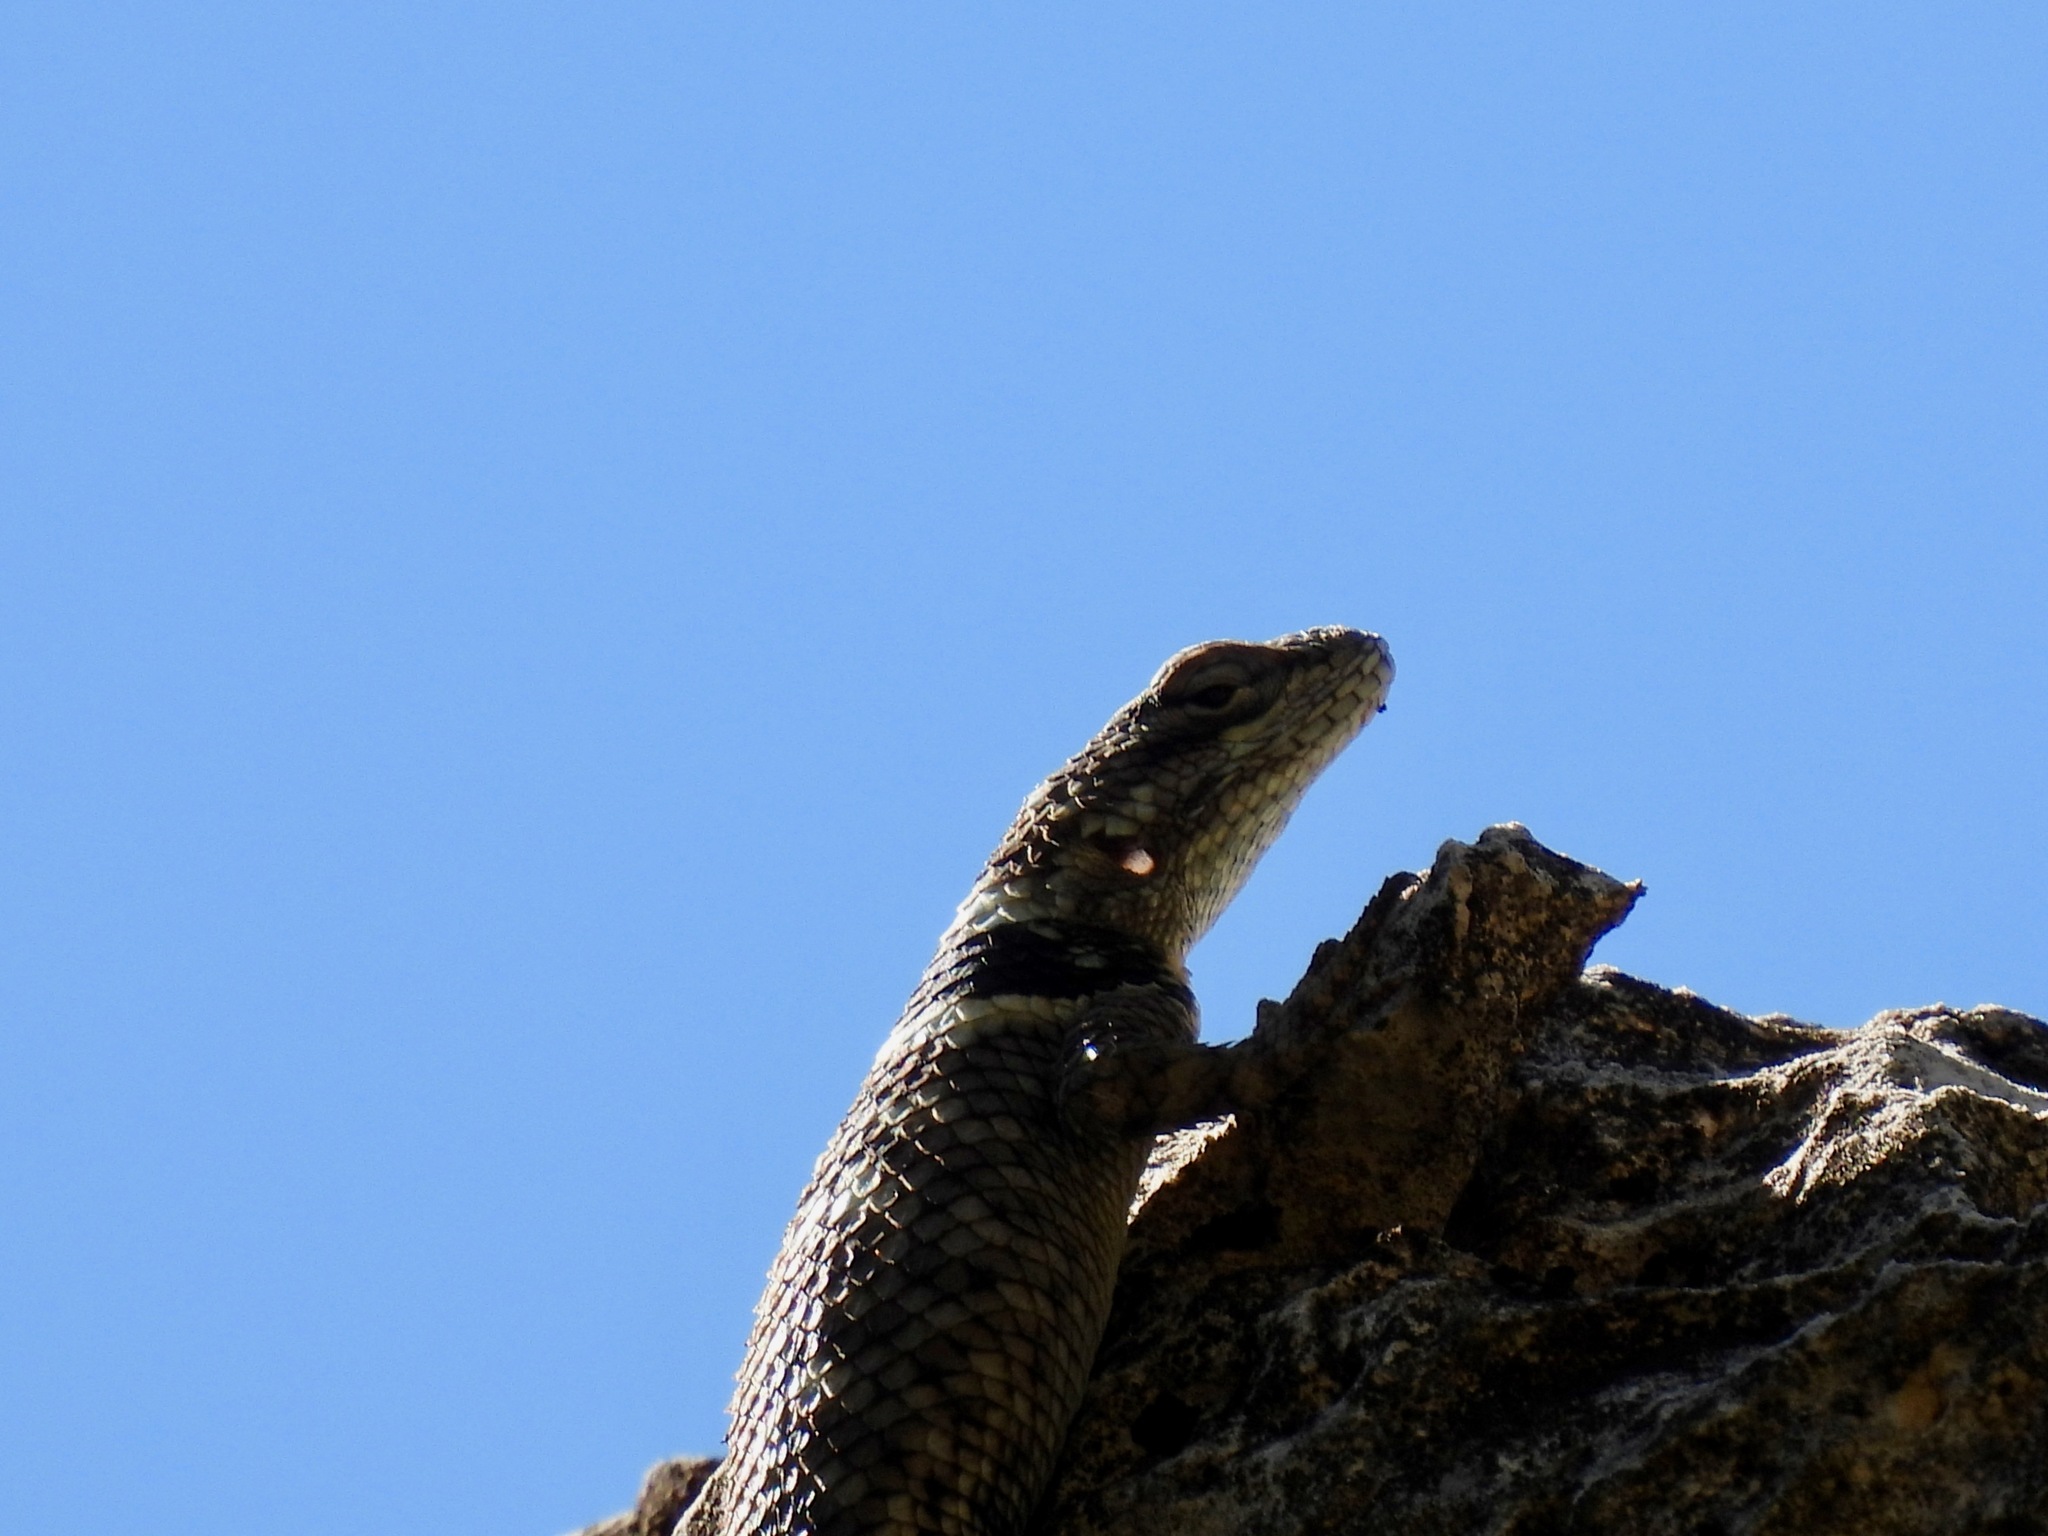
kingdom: Animalia
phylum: Chordata
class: Squamata
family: Phrynosomatidae
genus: Sceloporus
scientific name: Sceloporus poinsettii
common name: Crevice spiny lizard
